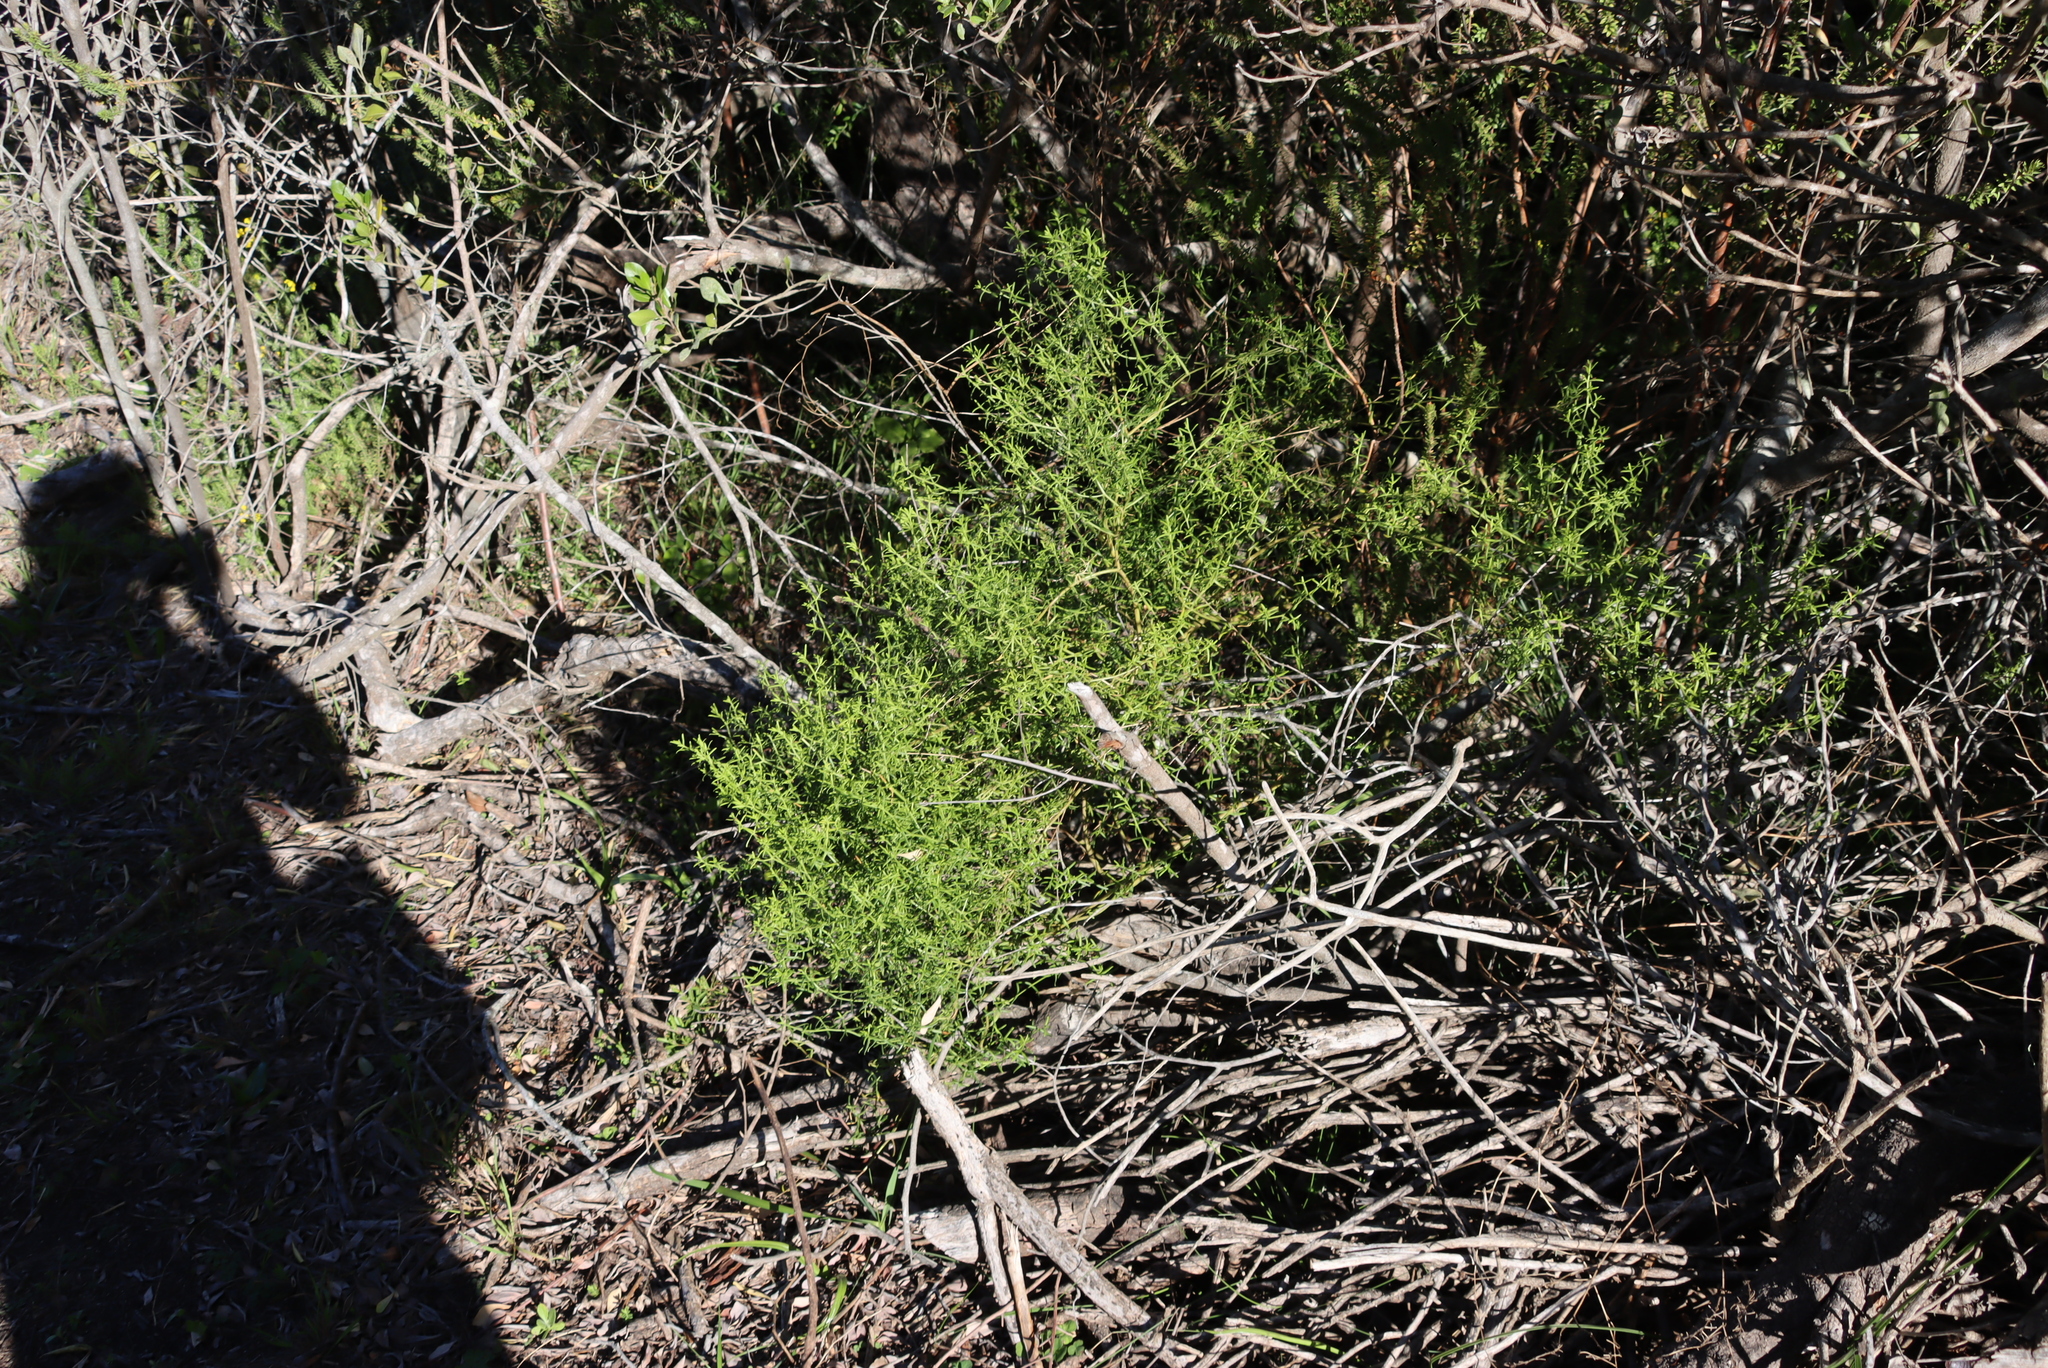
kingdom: Plantae
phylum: Tracheophyta
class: Magnoliopsida
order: Gentianales
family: Gentianaceae
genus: Chironia
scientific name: Chironia baccifera
